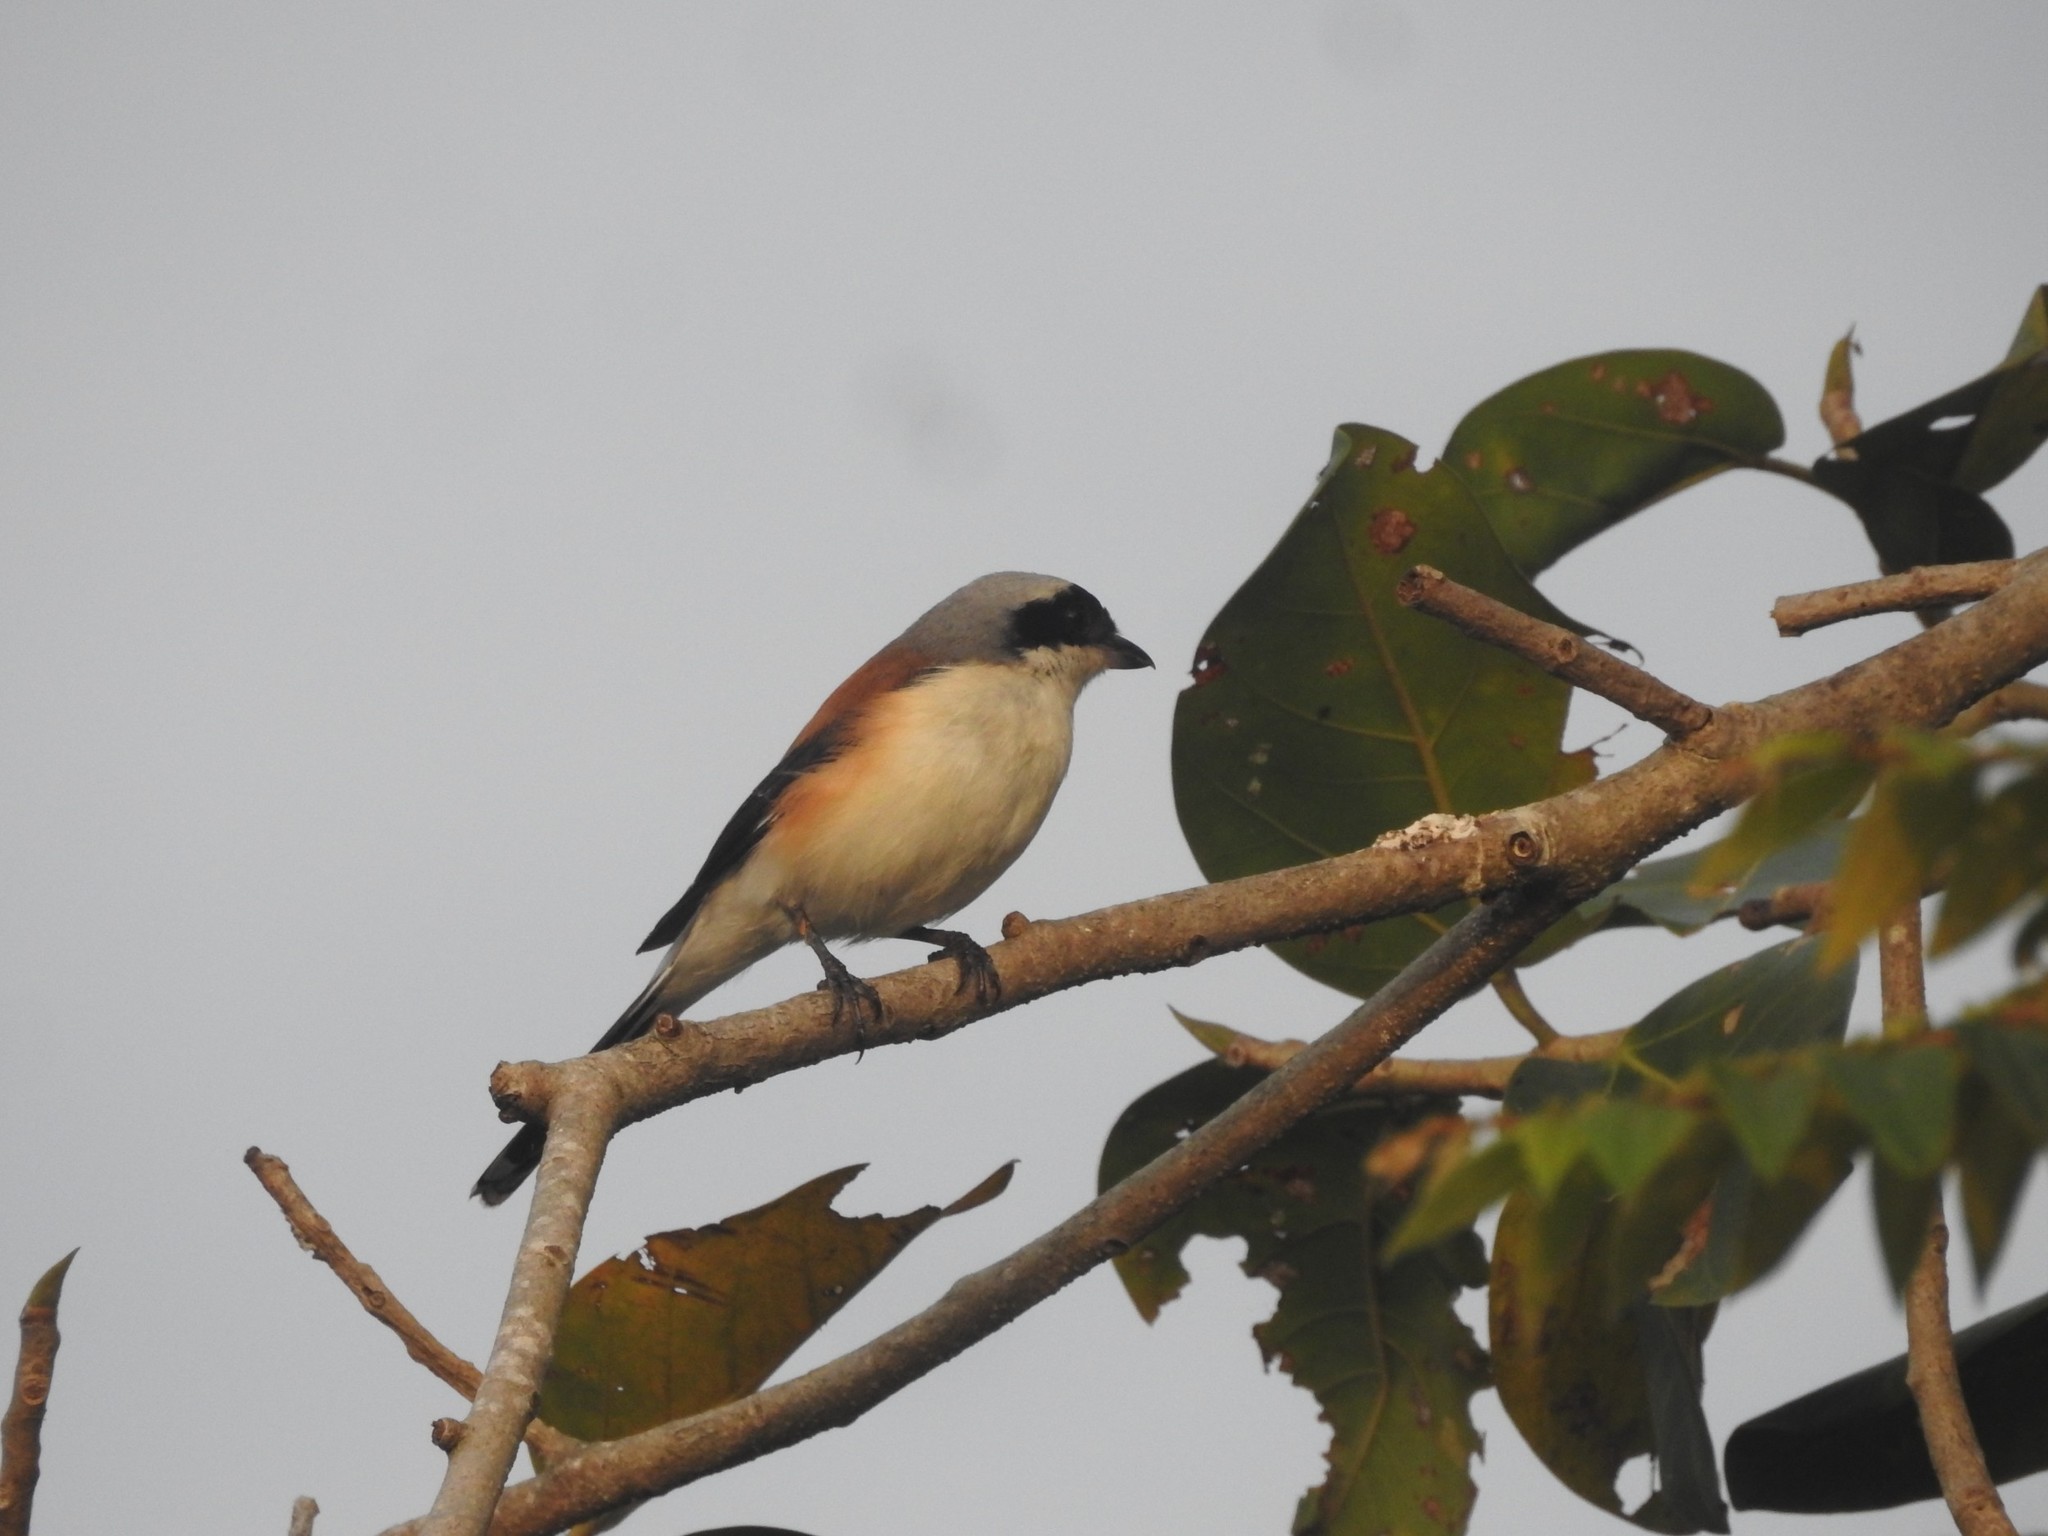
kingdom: Animalia
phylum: Chordata
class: Aves
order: Passeriformes
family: Laniidae
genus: Lanius
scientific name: Lanius vittatus
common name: Bay-backed shrike
